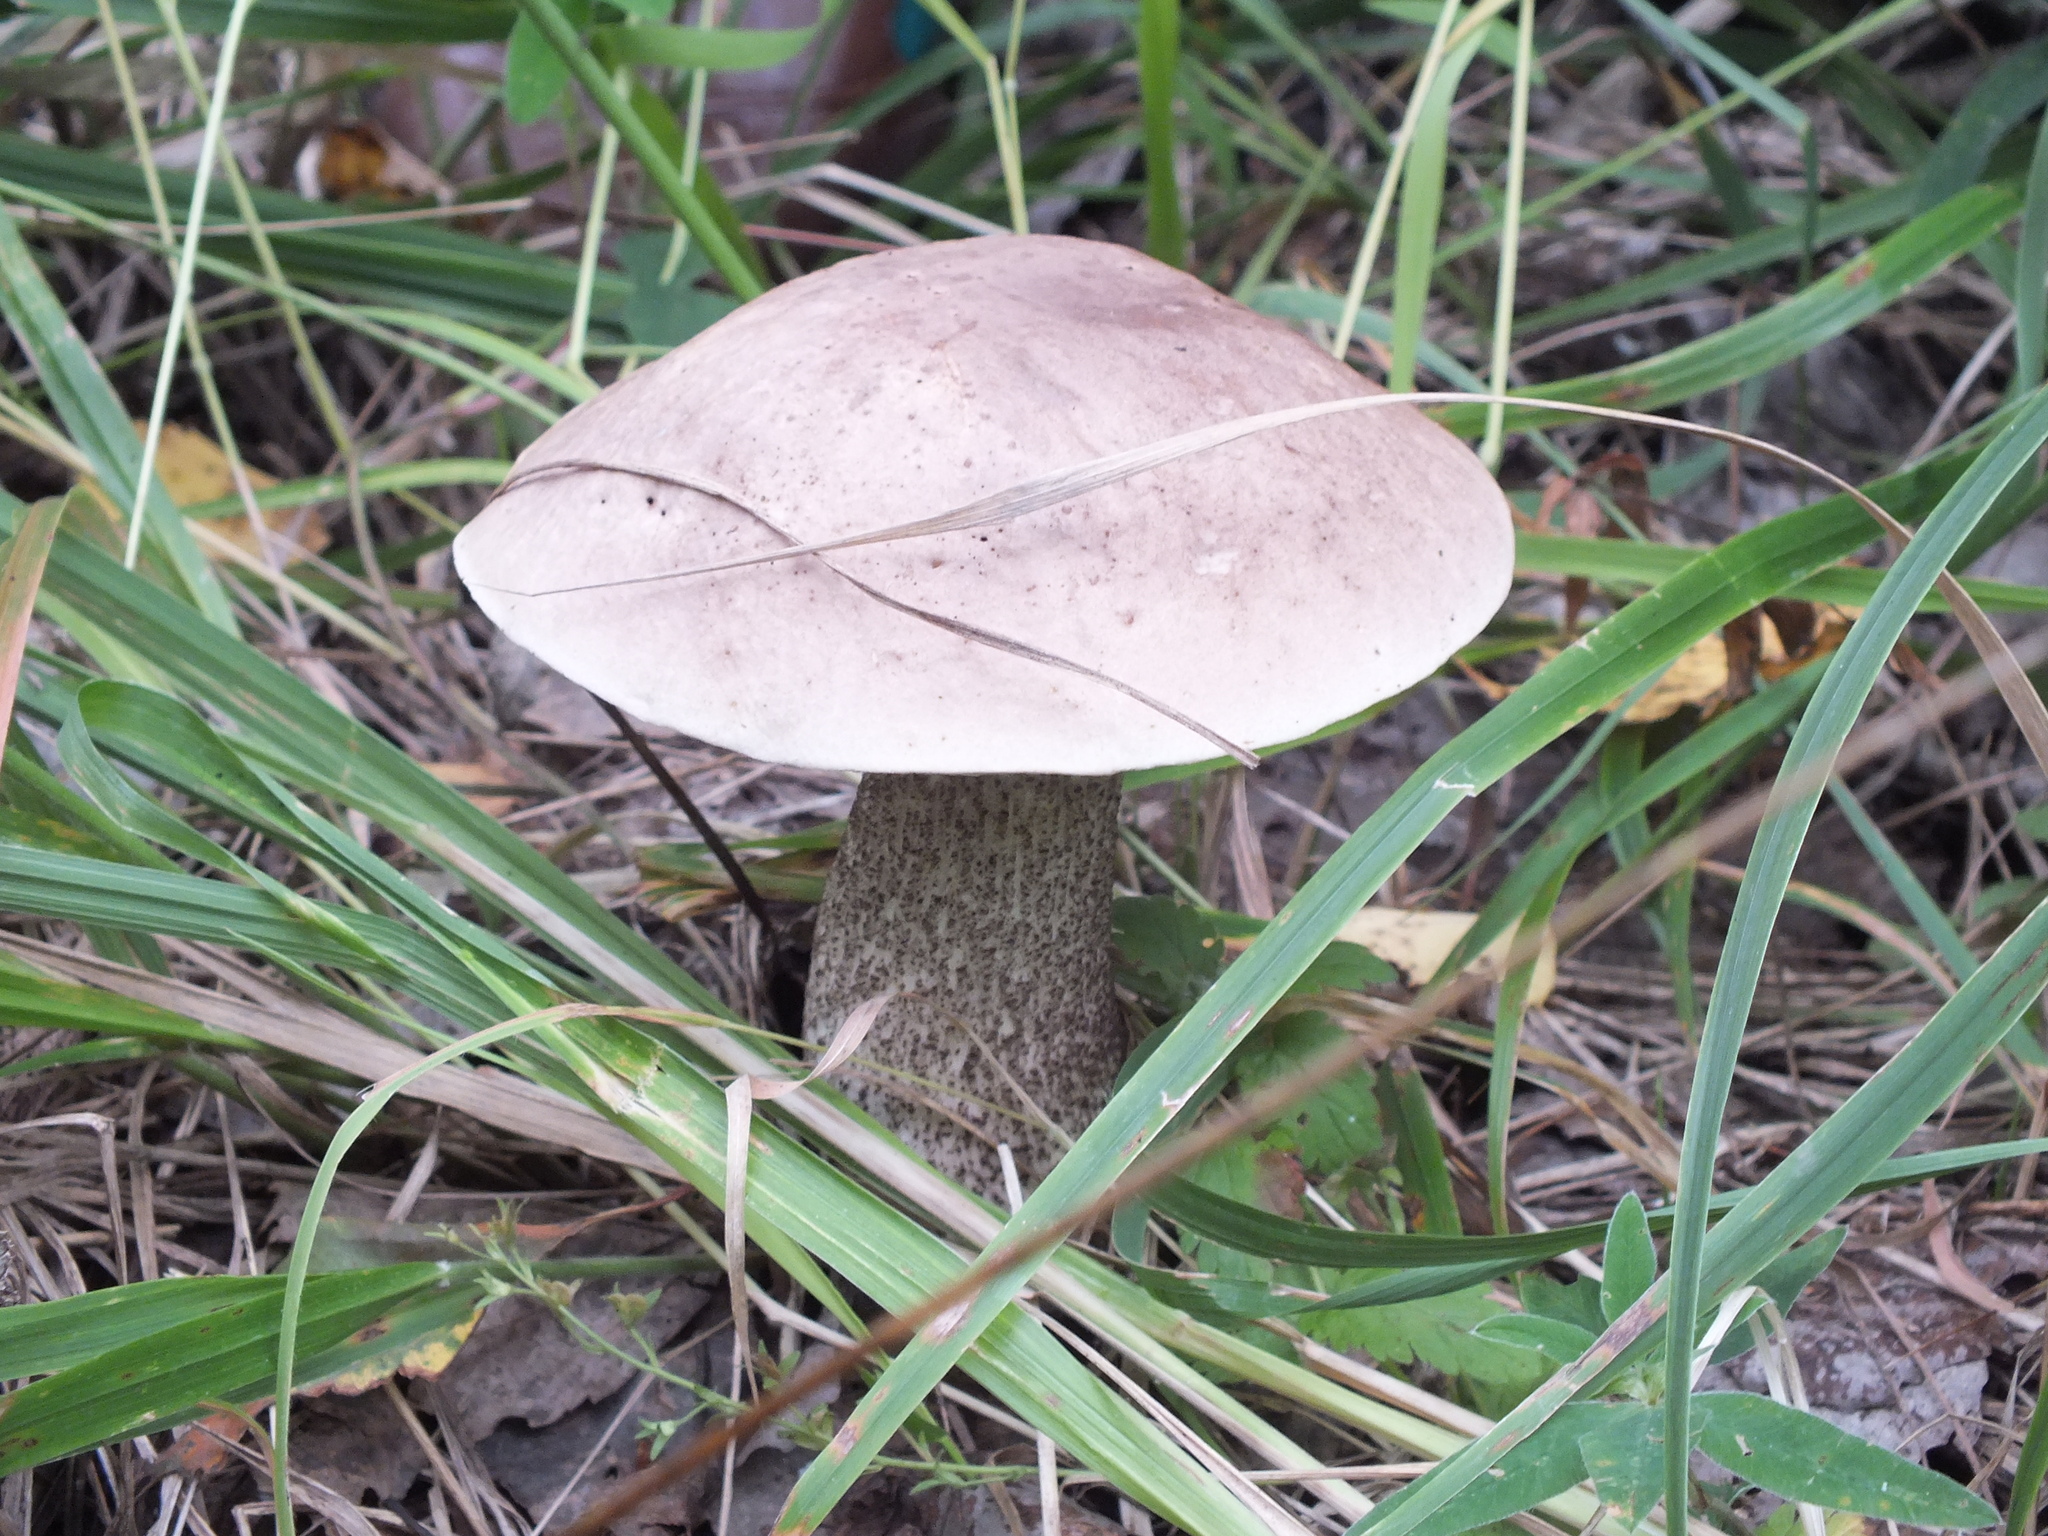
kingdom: Fungi
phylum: Basidiomycota
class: Agaricomycetes
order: Boletales
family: Boletaceae
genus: Leccinum
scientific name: Leccinum scabrum
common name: Blushing bolete
